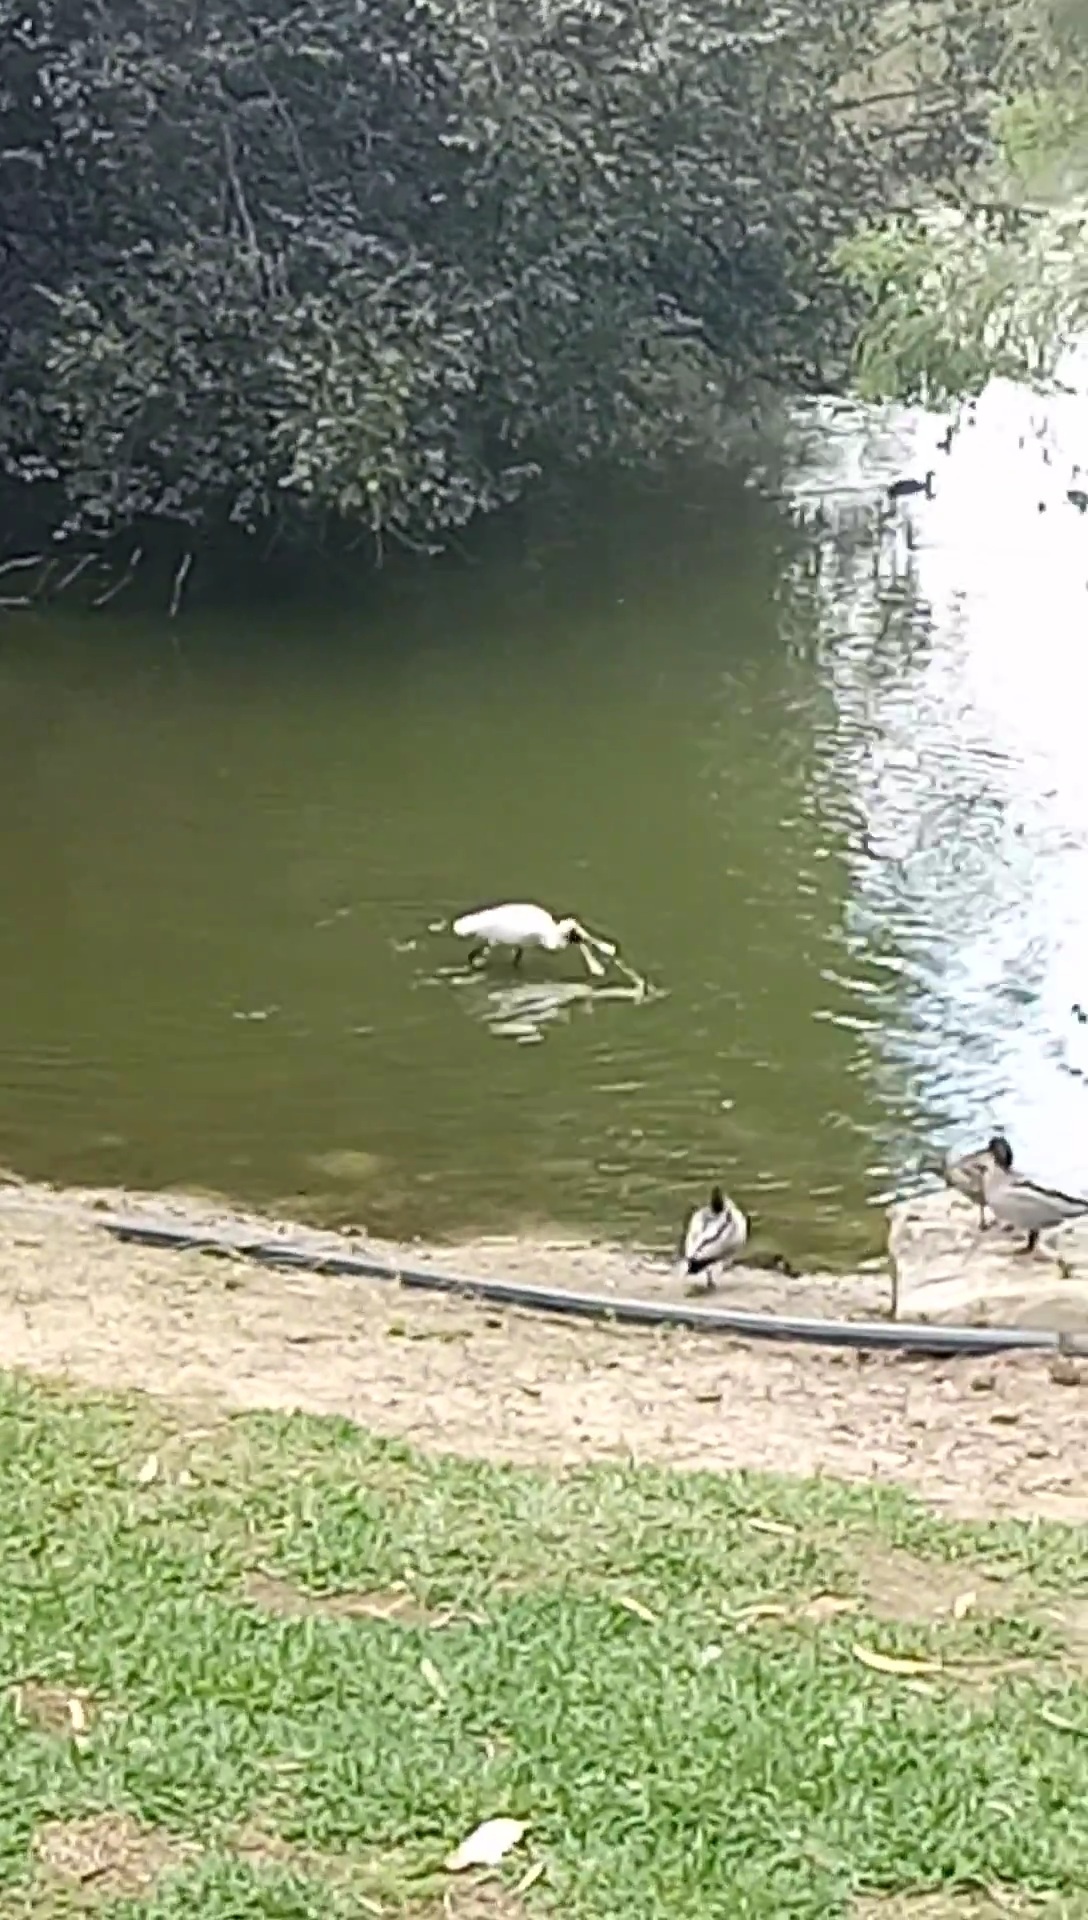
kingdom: Animalia
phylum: Chordata
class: Aves
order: Pelecaniformes
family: Threskiornithidae
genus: Platalea
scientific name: Platalea regia
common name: Royal spoonbill
